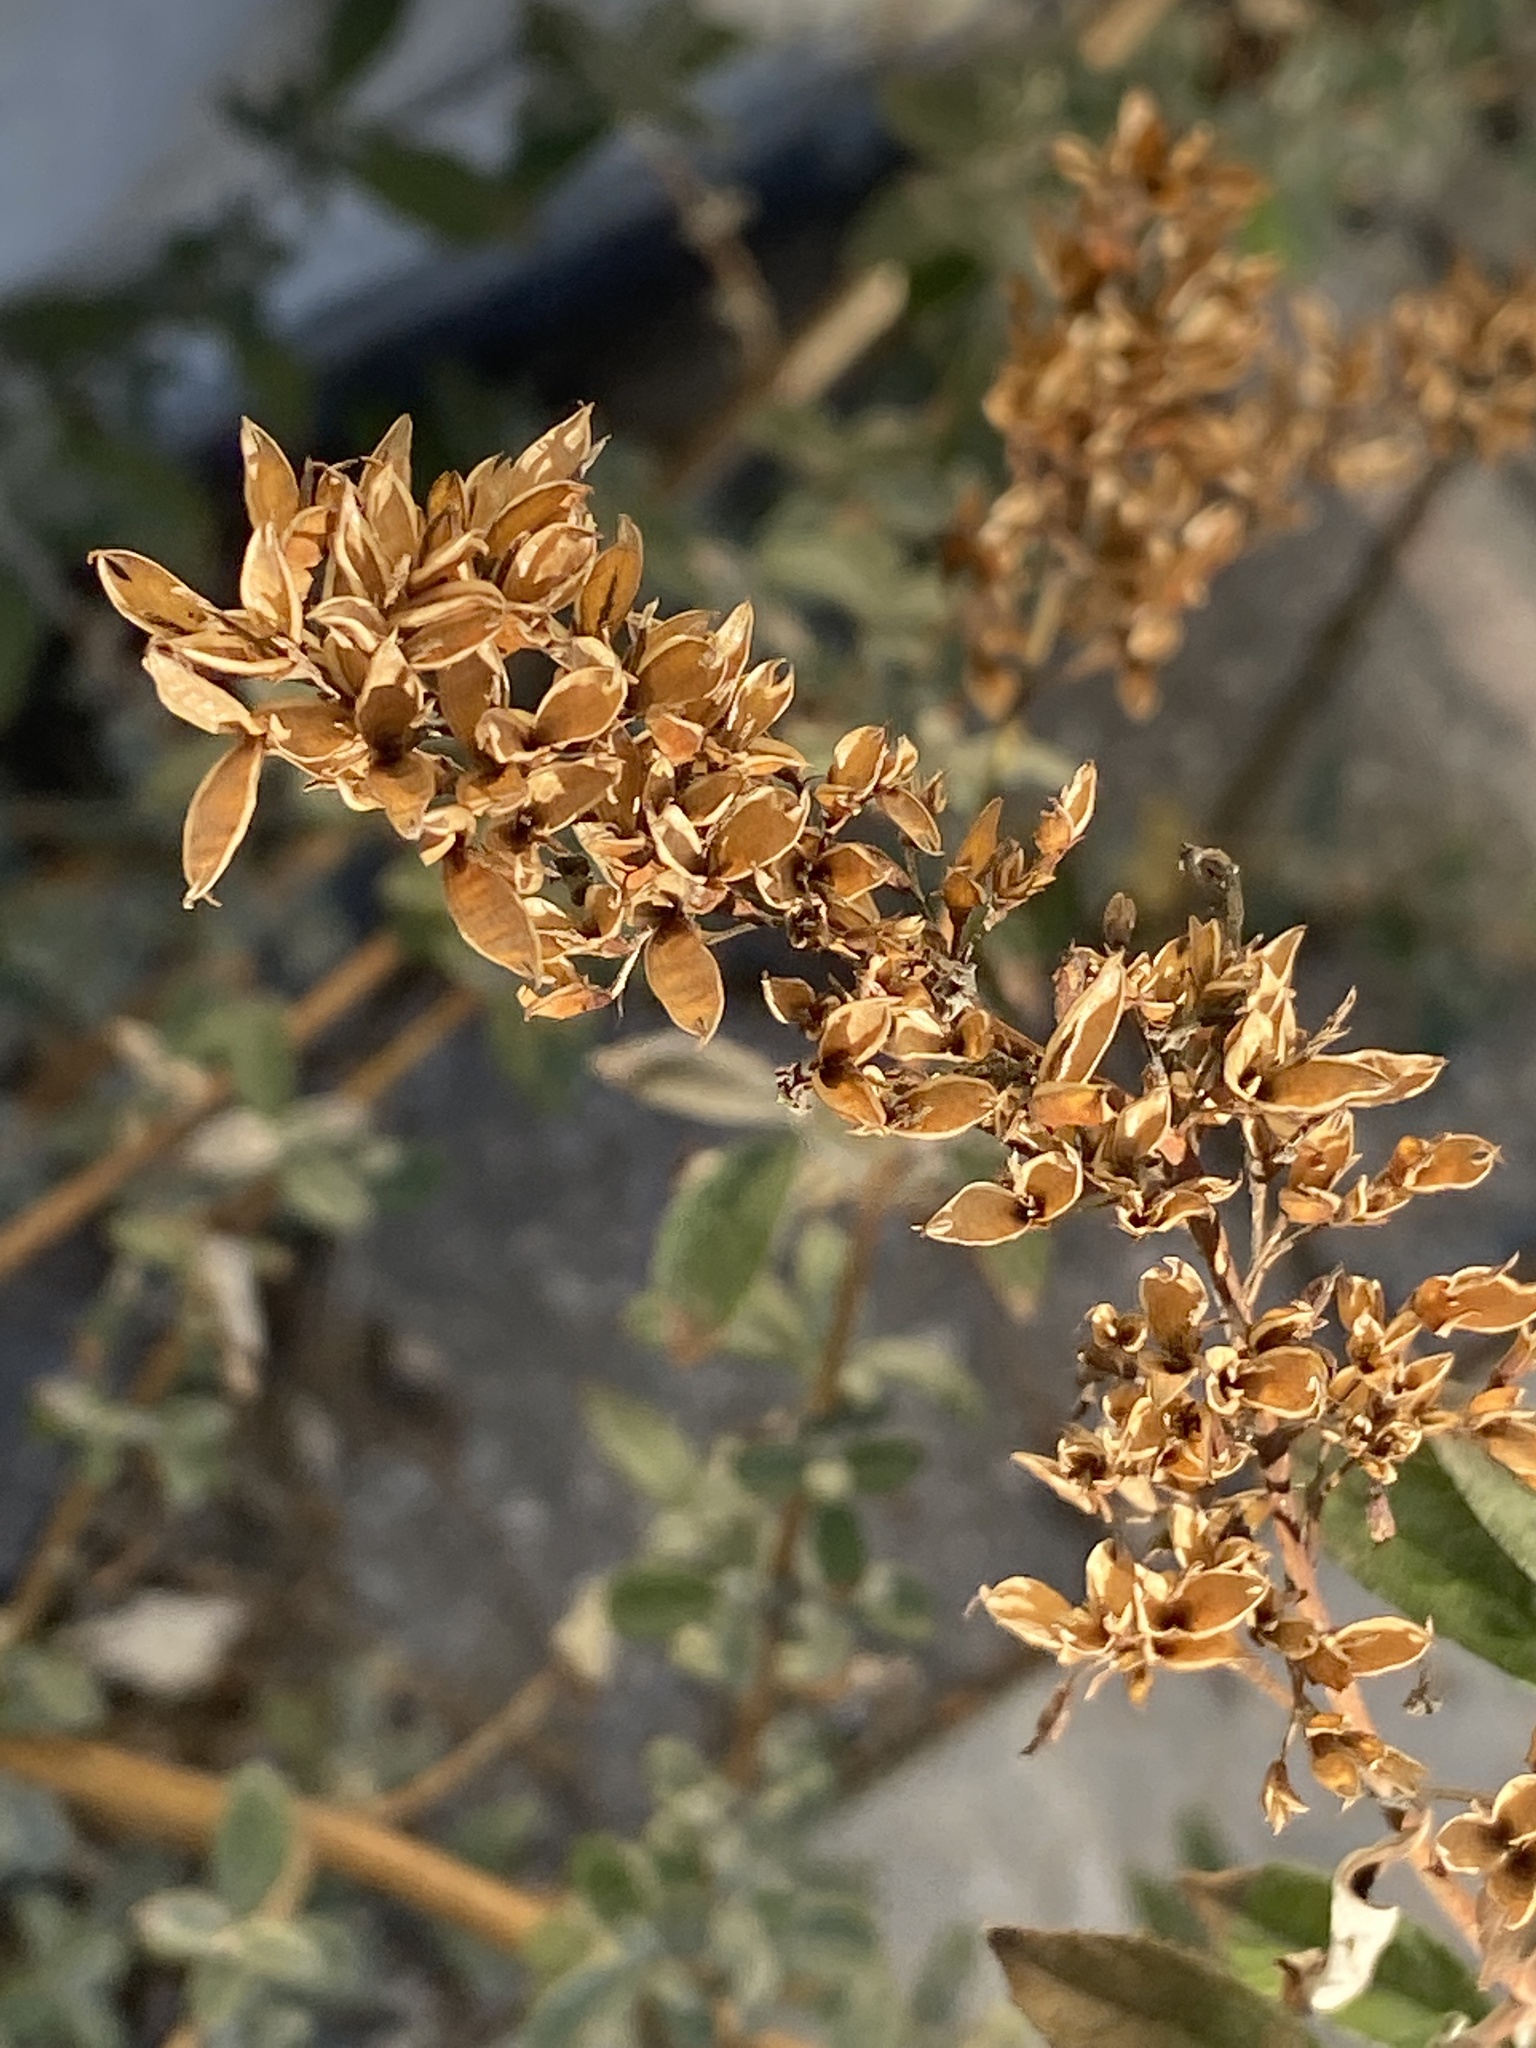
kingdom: Plantae
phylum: Tracheophyta
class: Magnoliopsida
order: Lamiales
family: Scrophulariaceae
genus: Buddleja
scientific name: Buddleja davidii
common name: Butterfly-bush
